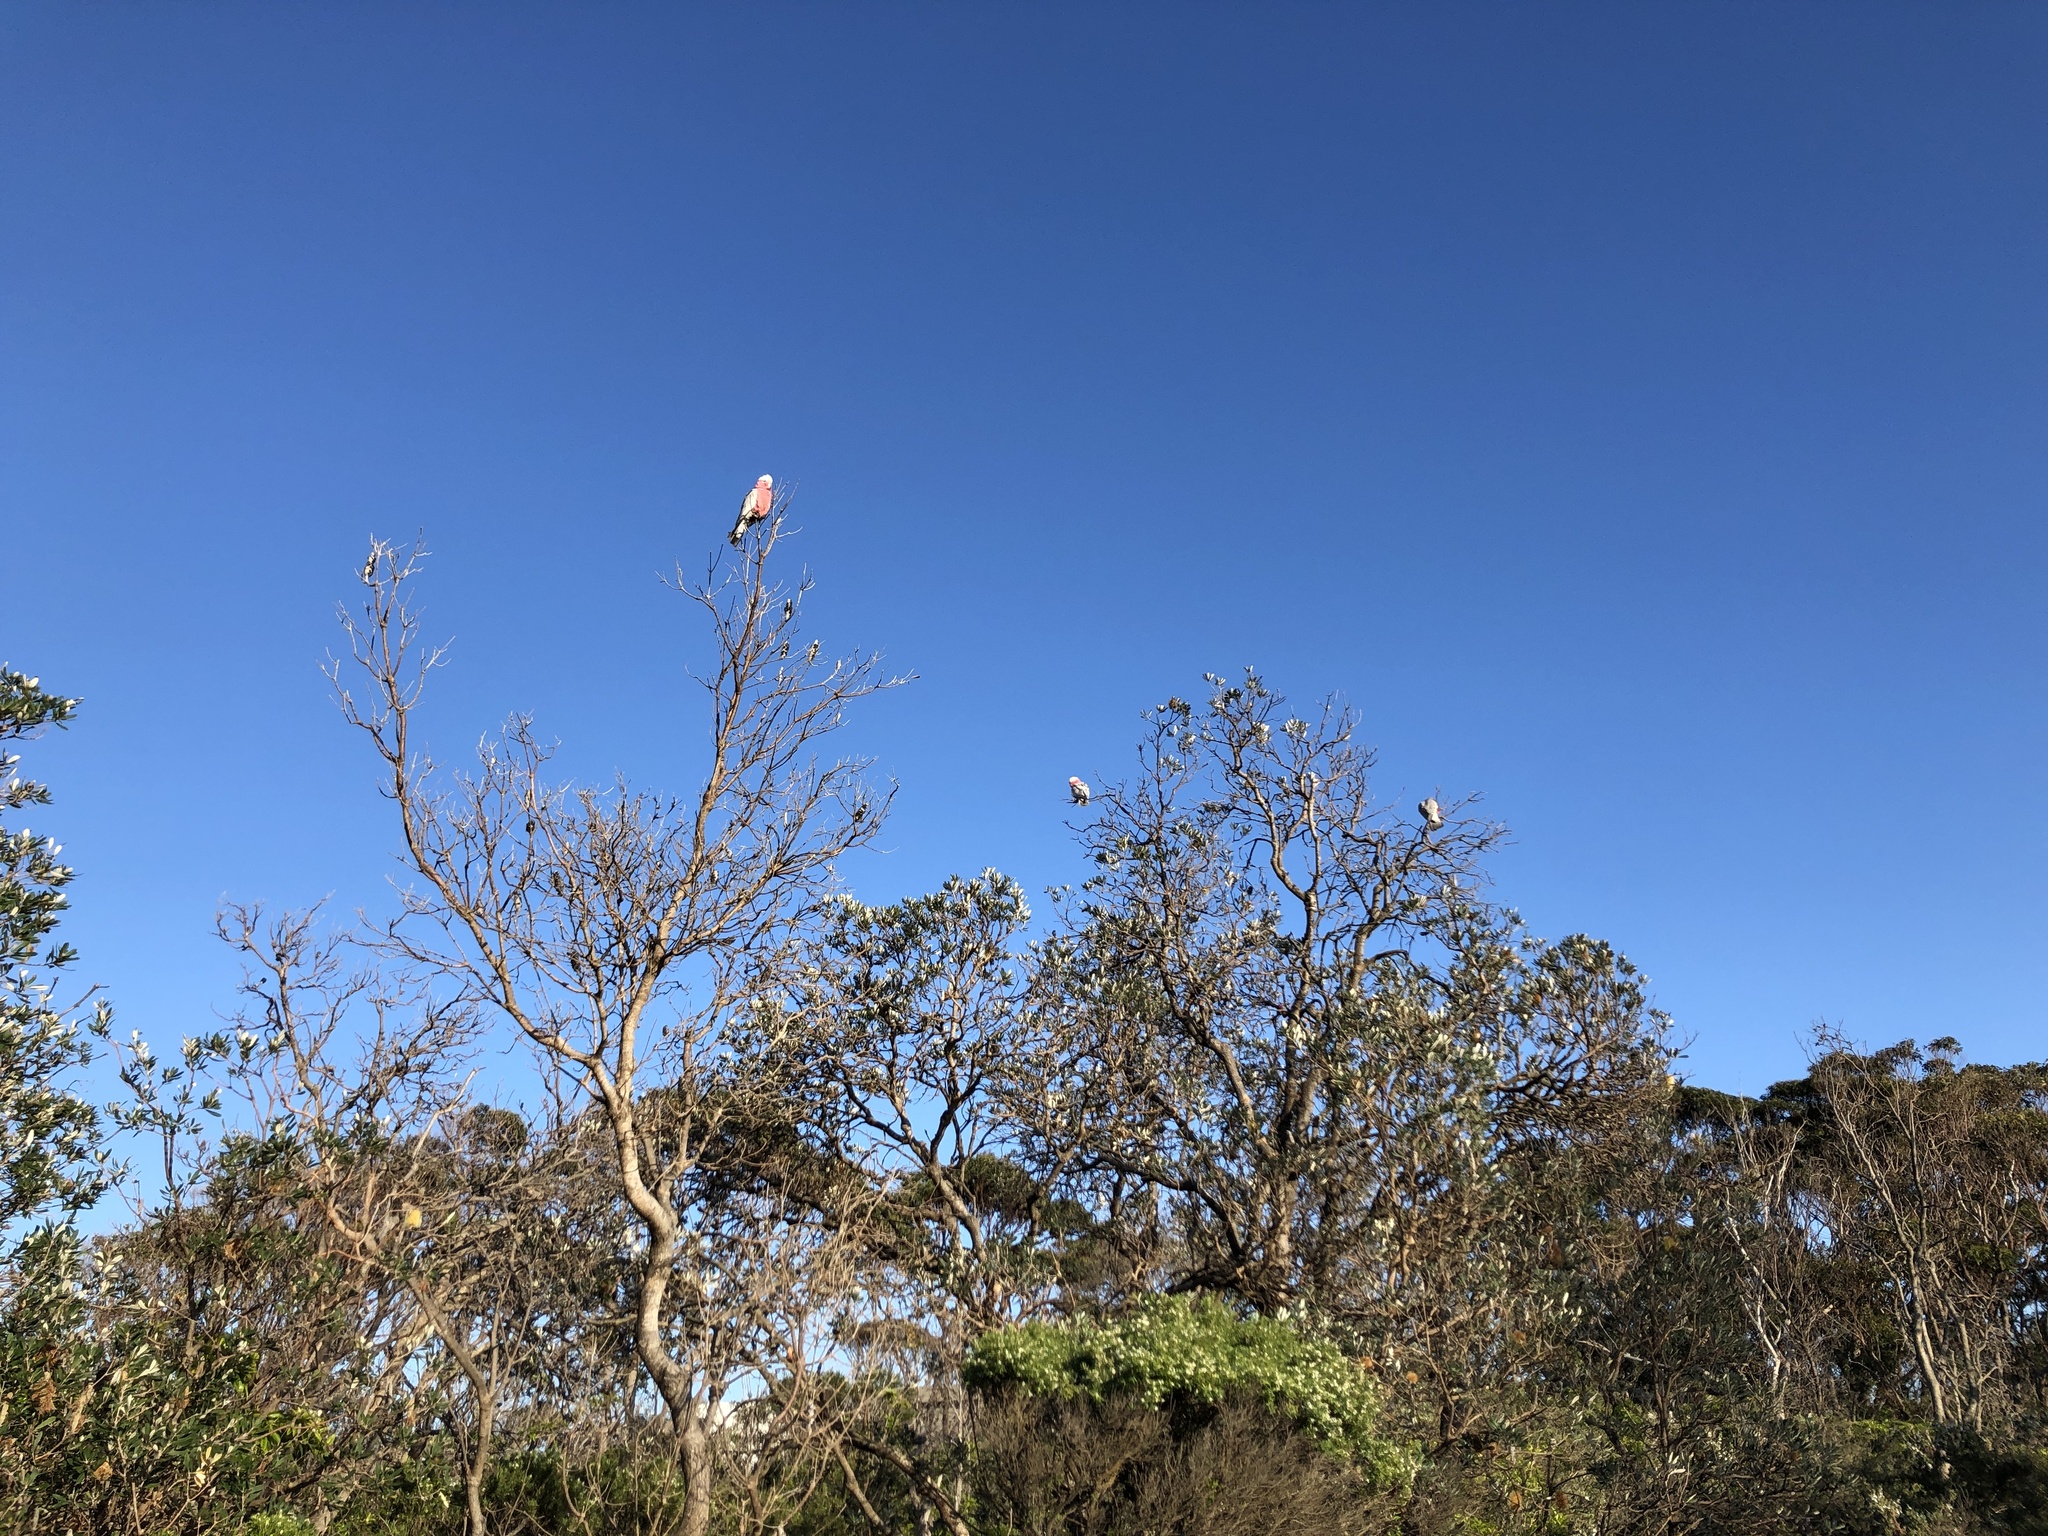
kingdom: Animalia
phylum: Chordata
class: Aves
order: Psittaciformes
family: Psittacidae
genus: Eolophus
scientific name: Eolophus roseicapilla
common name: Galah
